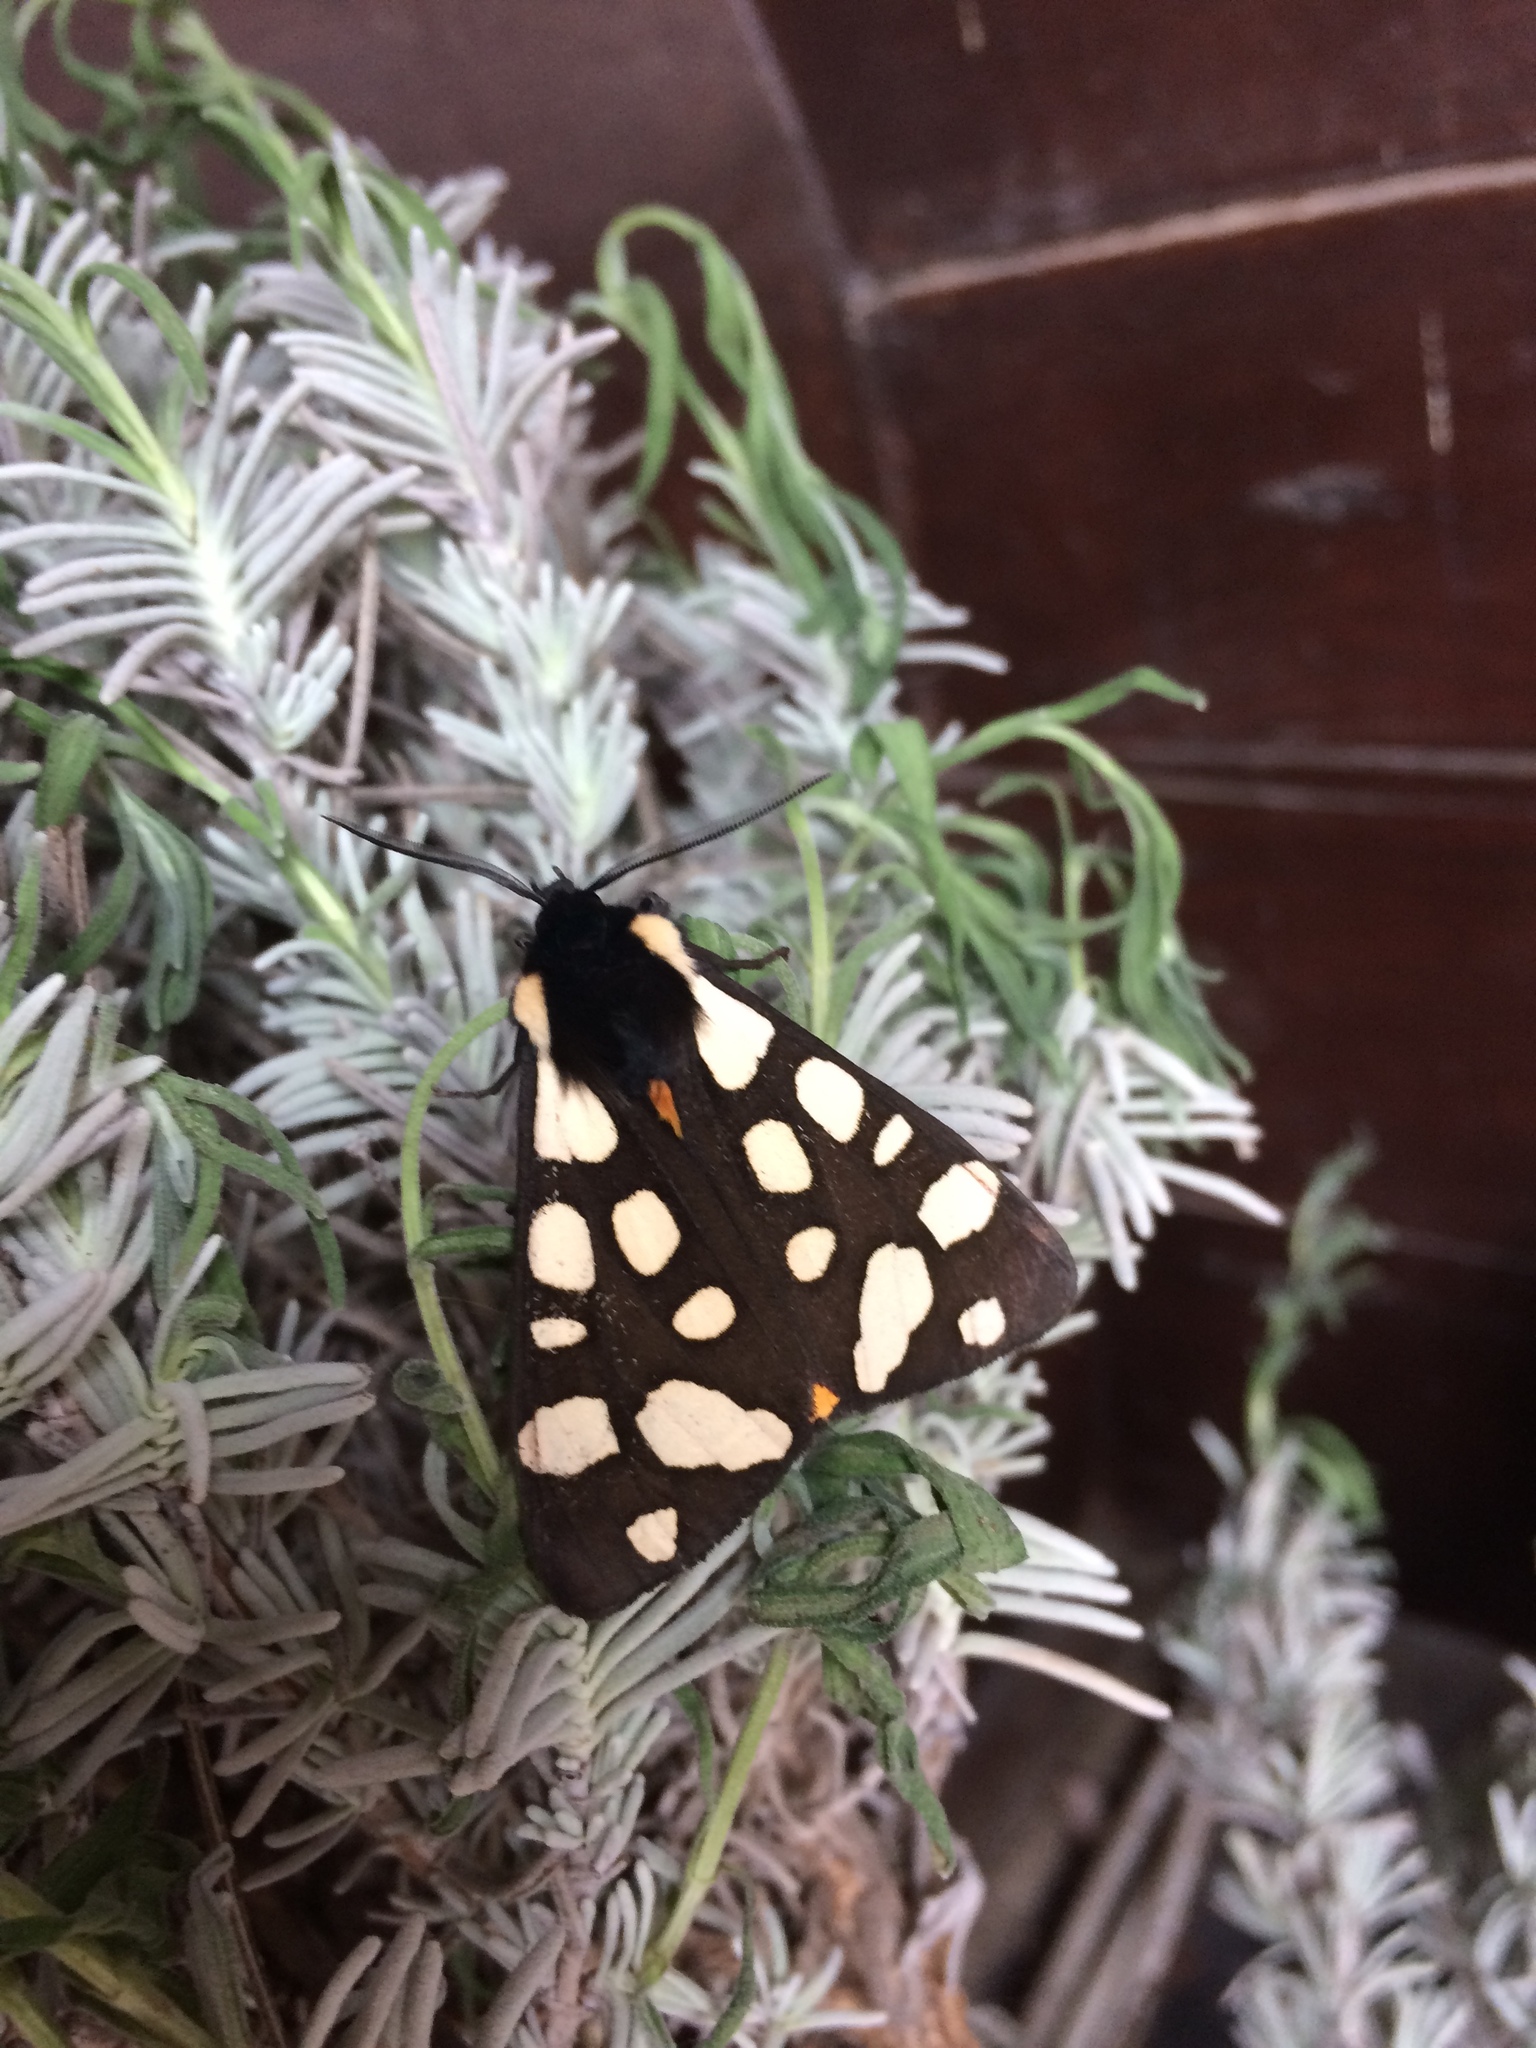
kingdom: Animalia
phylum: Arthropoda
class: Insecta
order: Lepidoptera
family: Erebidae
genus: Epicallia
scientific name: Epicallia villica
